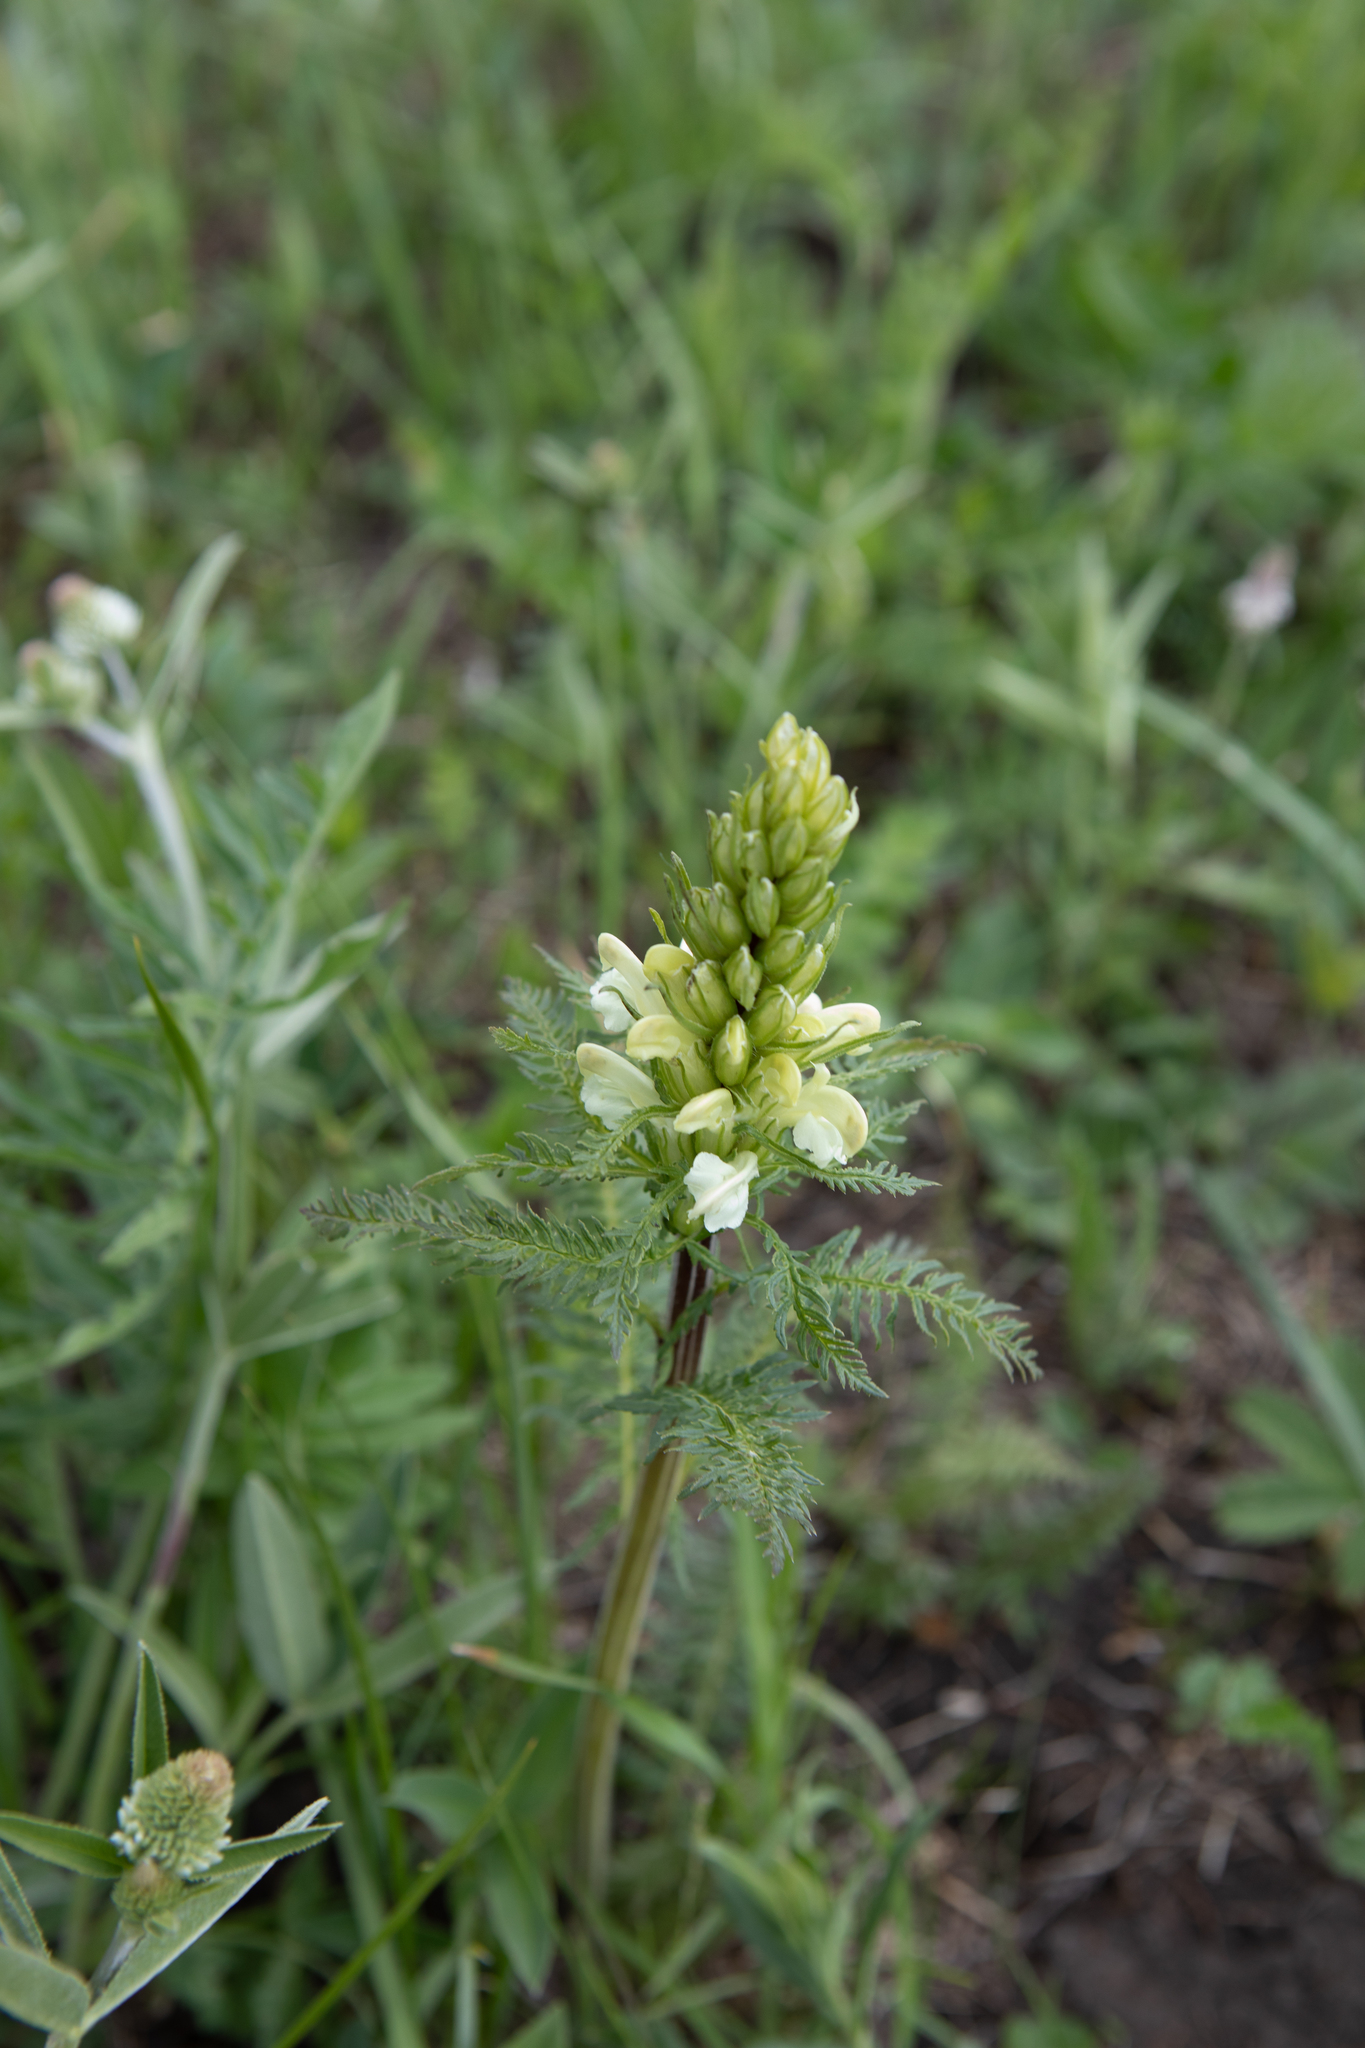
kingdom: Plantae
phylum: Tracheophyta
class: Magnoliopsida
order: Lamiales
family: Orobanchaceae
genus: Pedicularis
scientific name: Pedicularis sibirica
